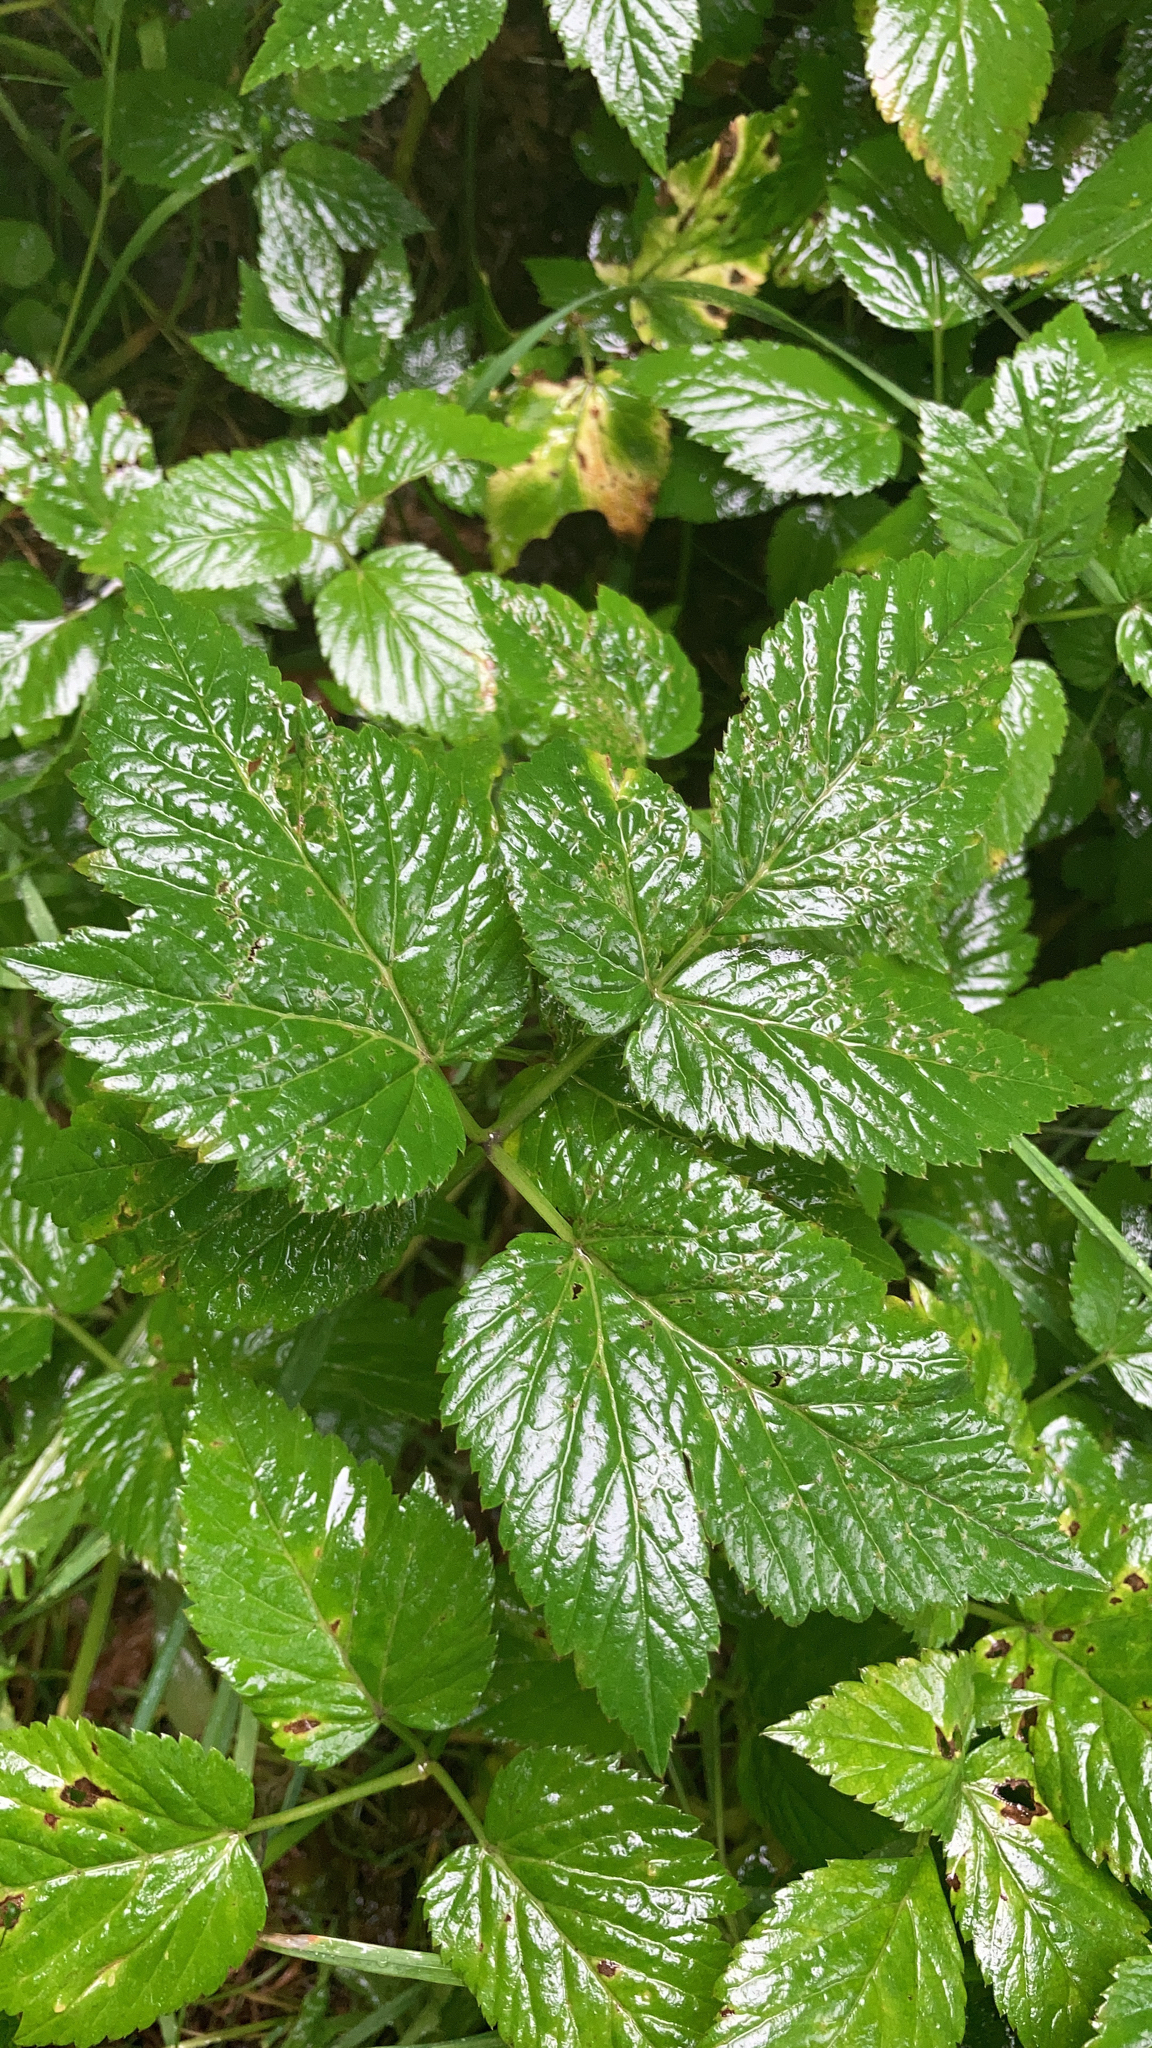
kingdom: Plantae
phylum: Tracheophyta
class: Magnoliopsida
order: Apiales
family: Apiaceae
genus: Aegopodium
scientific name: Aegopodium podagraria
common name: Ground-elder
